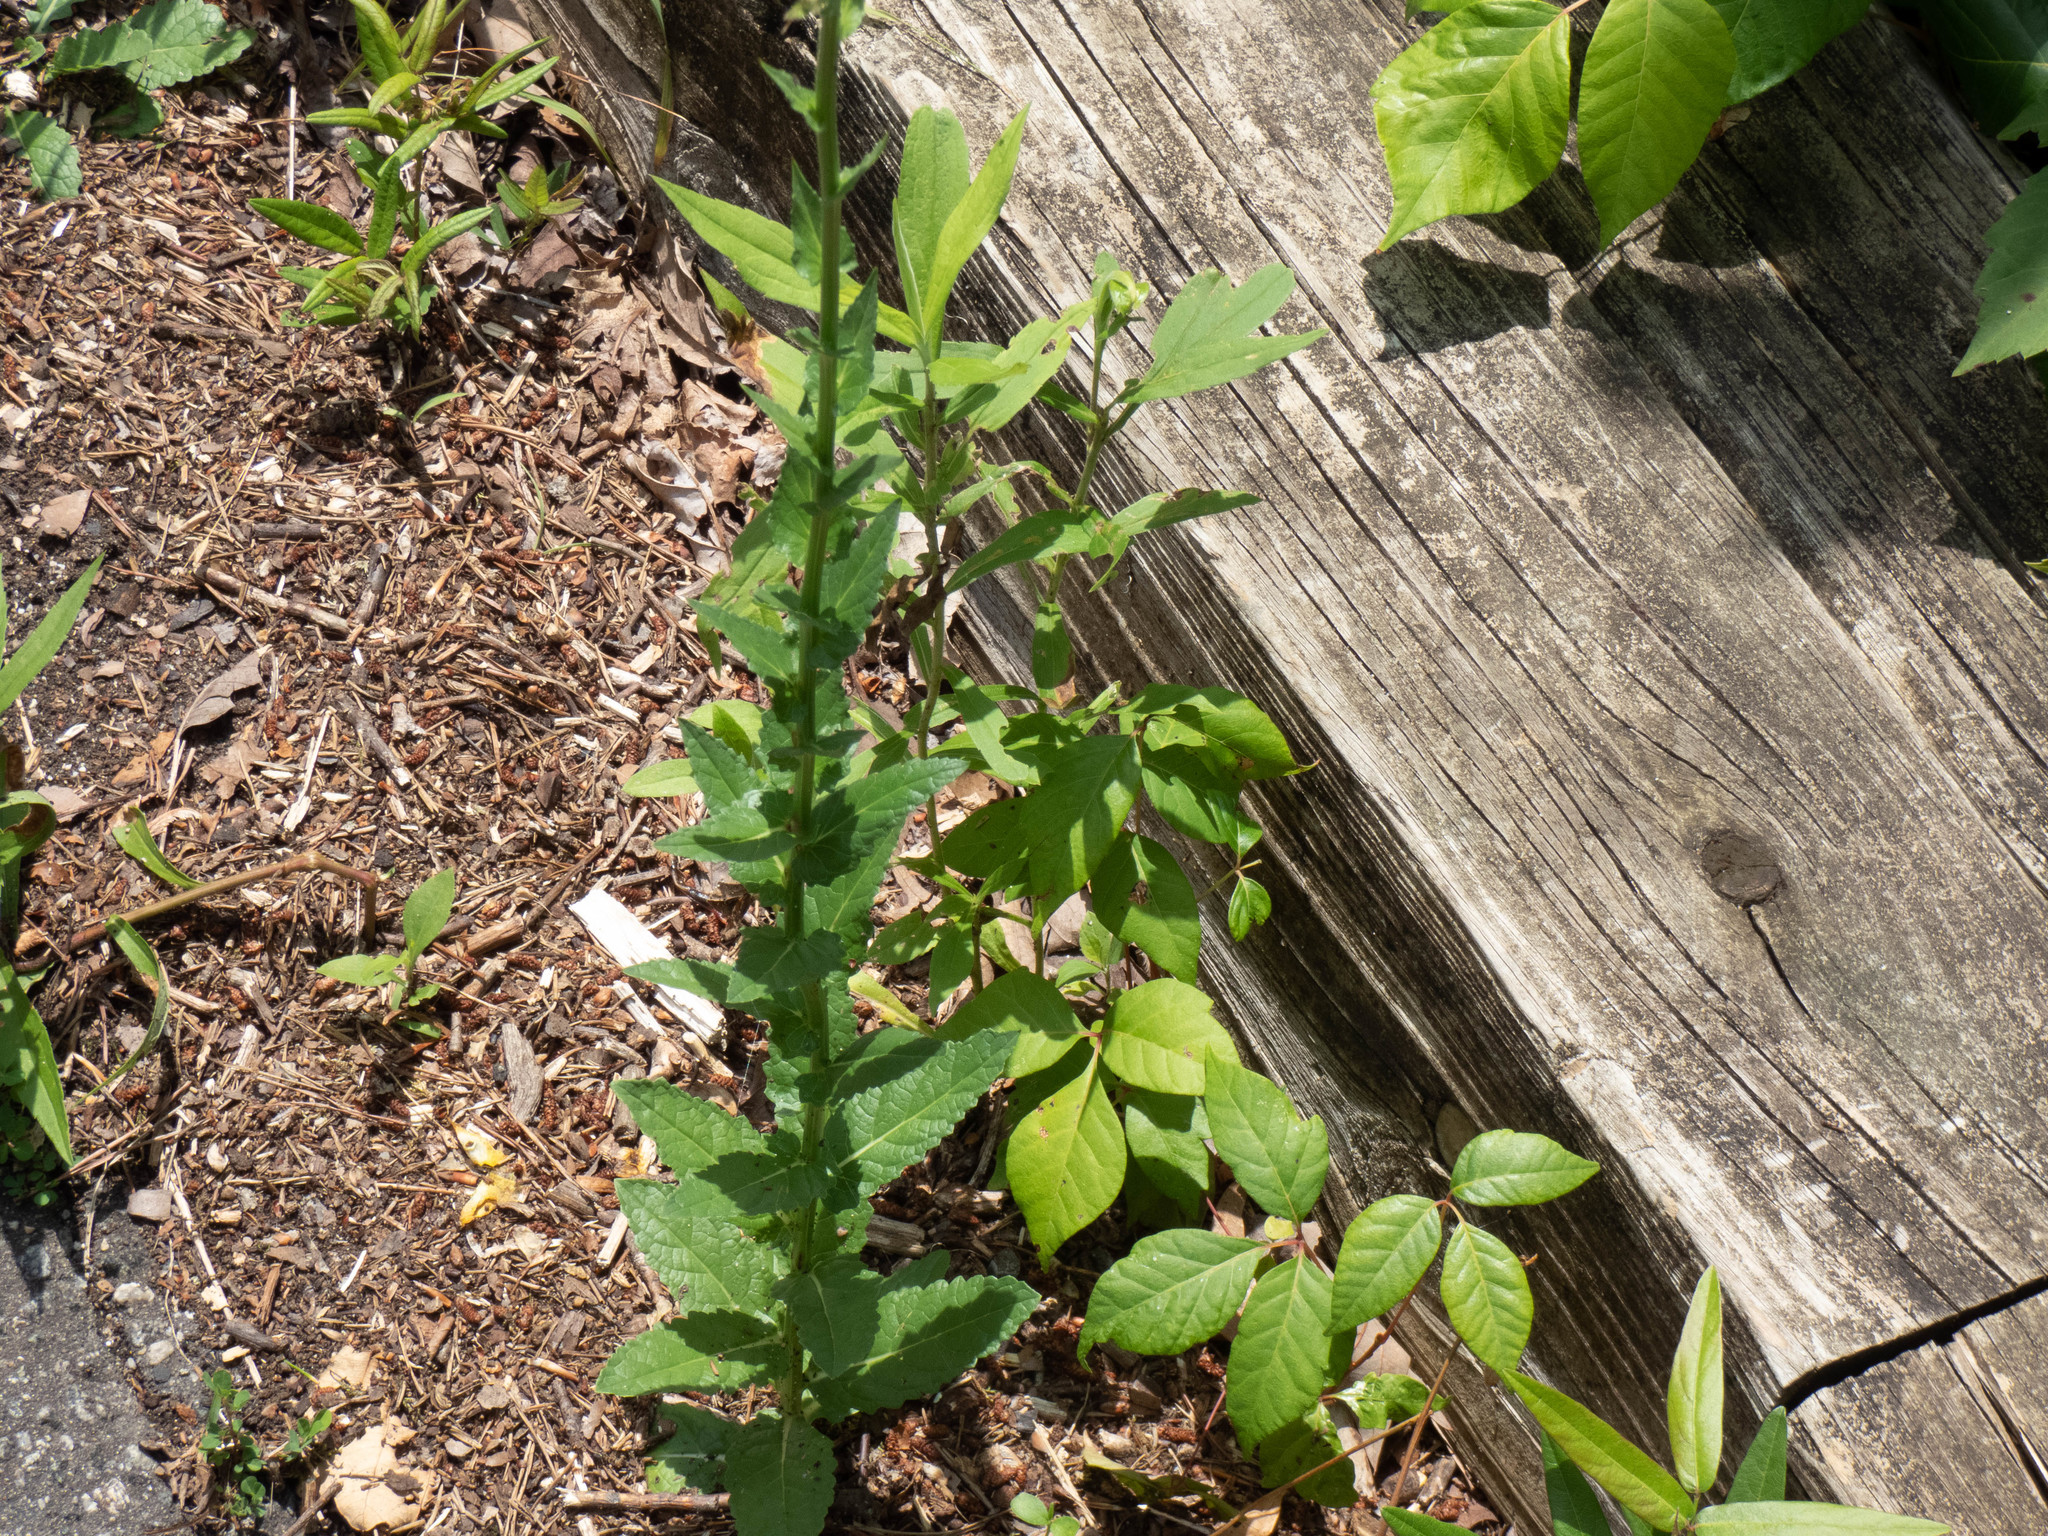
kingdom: Plantae
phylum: Tracheophyta
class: Magnoliopsida
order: Lamiales
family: Scrophulariaceae
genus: Verbascum
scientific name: Verbascum blattaria
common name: Moth mullein
